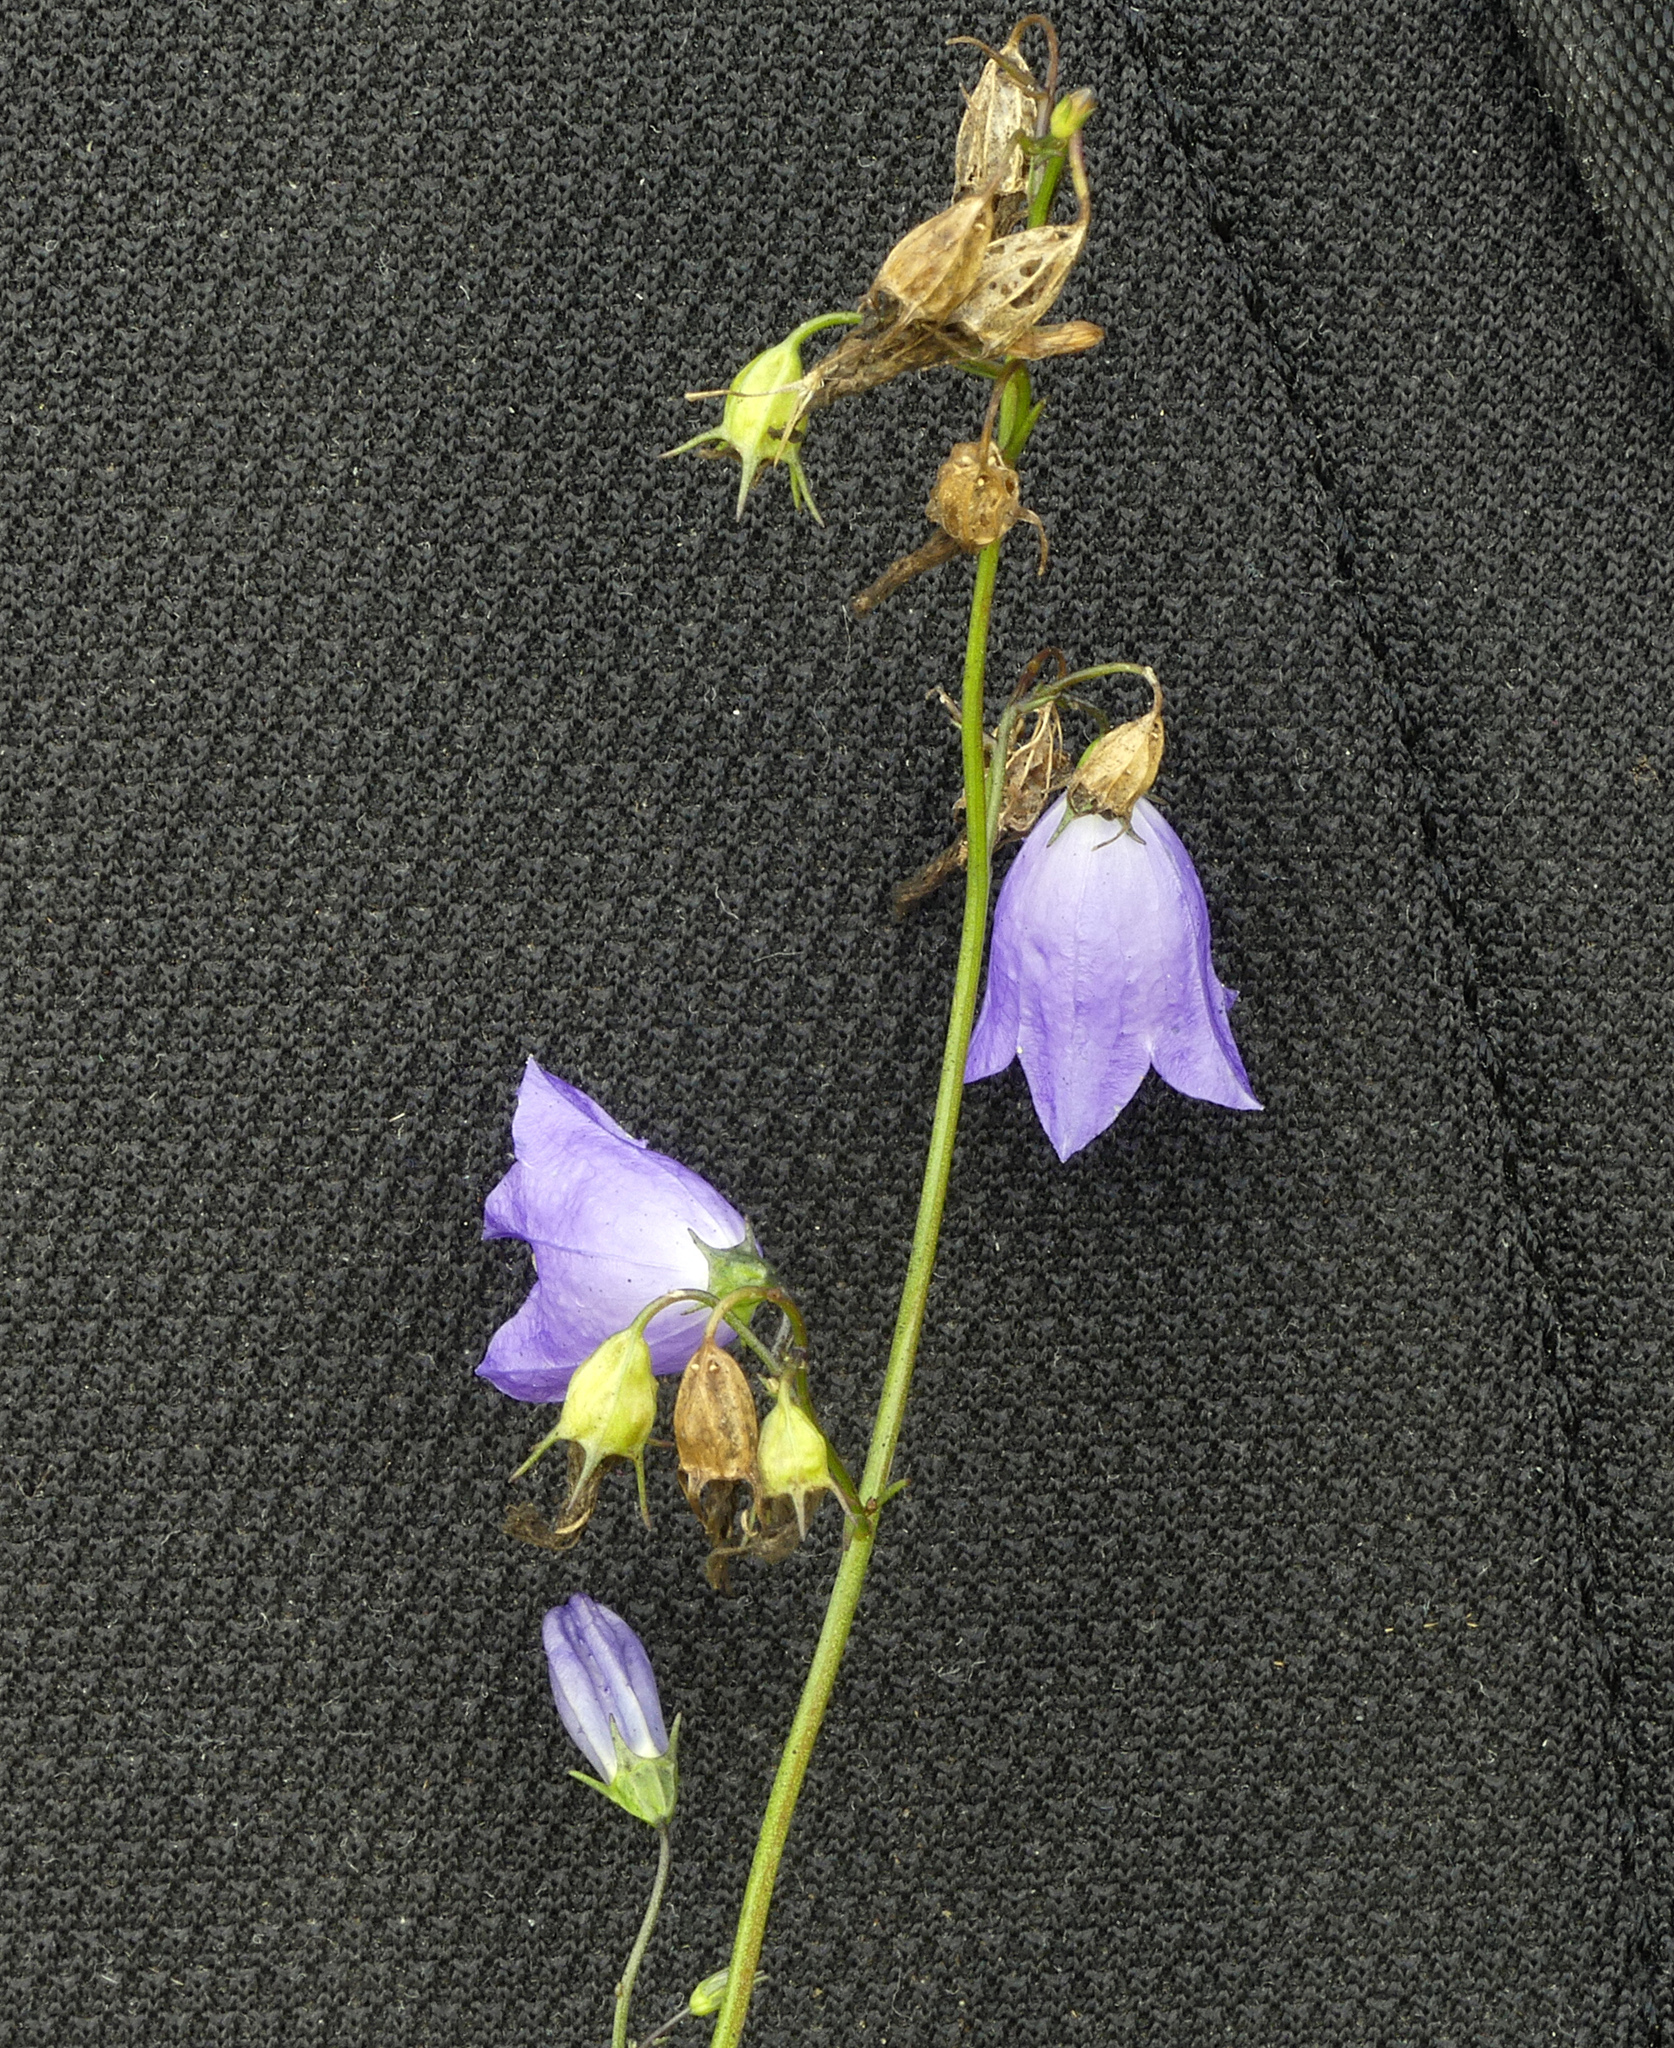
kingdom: Plantae
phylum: Tracheophyta
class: Magnoliopsida
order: Asterales
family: Campanulaceae
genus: Campanula
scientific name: Campanula rotundifolia
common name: Harebell
